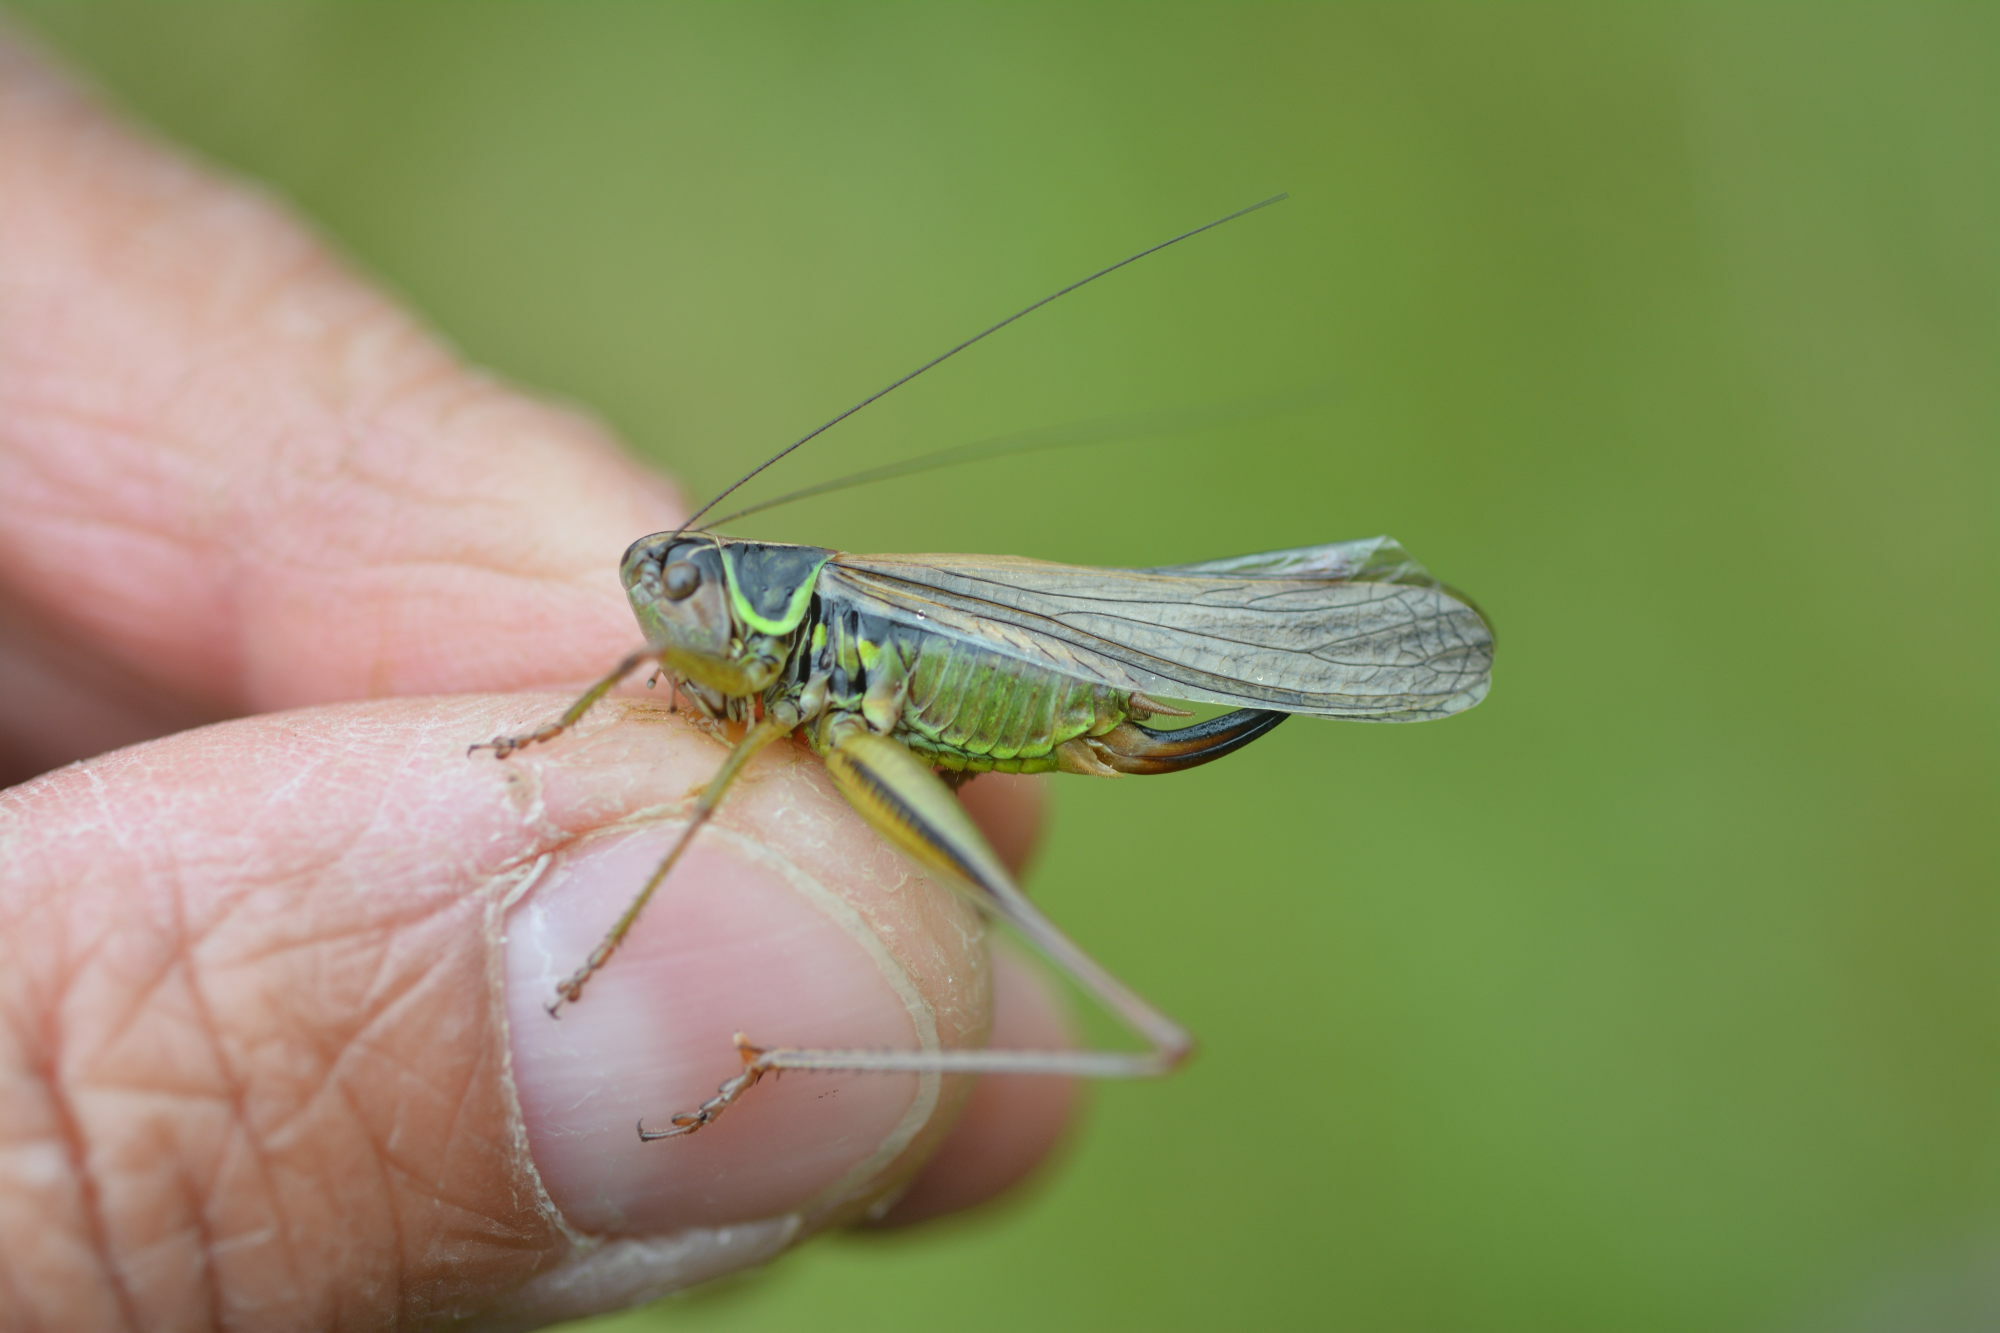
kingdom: Animalia
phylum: Arthropoda
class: Insecta
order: Orthoptera
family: Tettigoniidae
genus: Roeseliana
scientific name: Roeseliana roeselii
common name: Roesel's bush cricket
